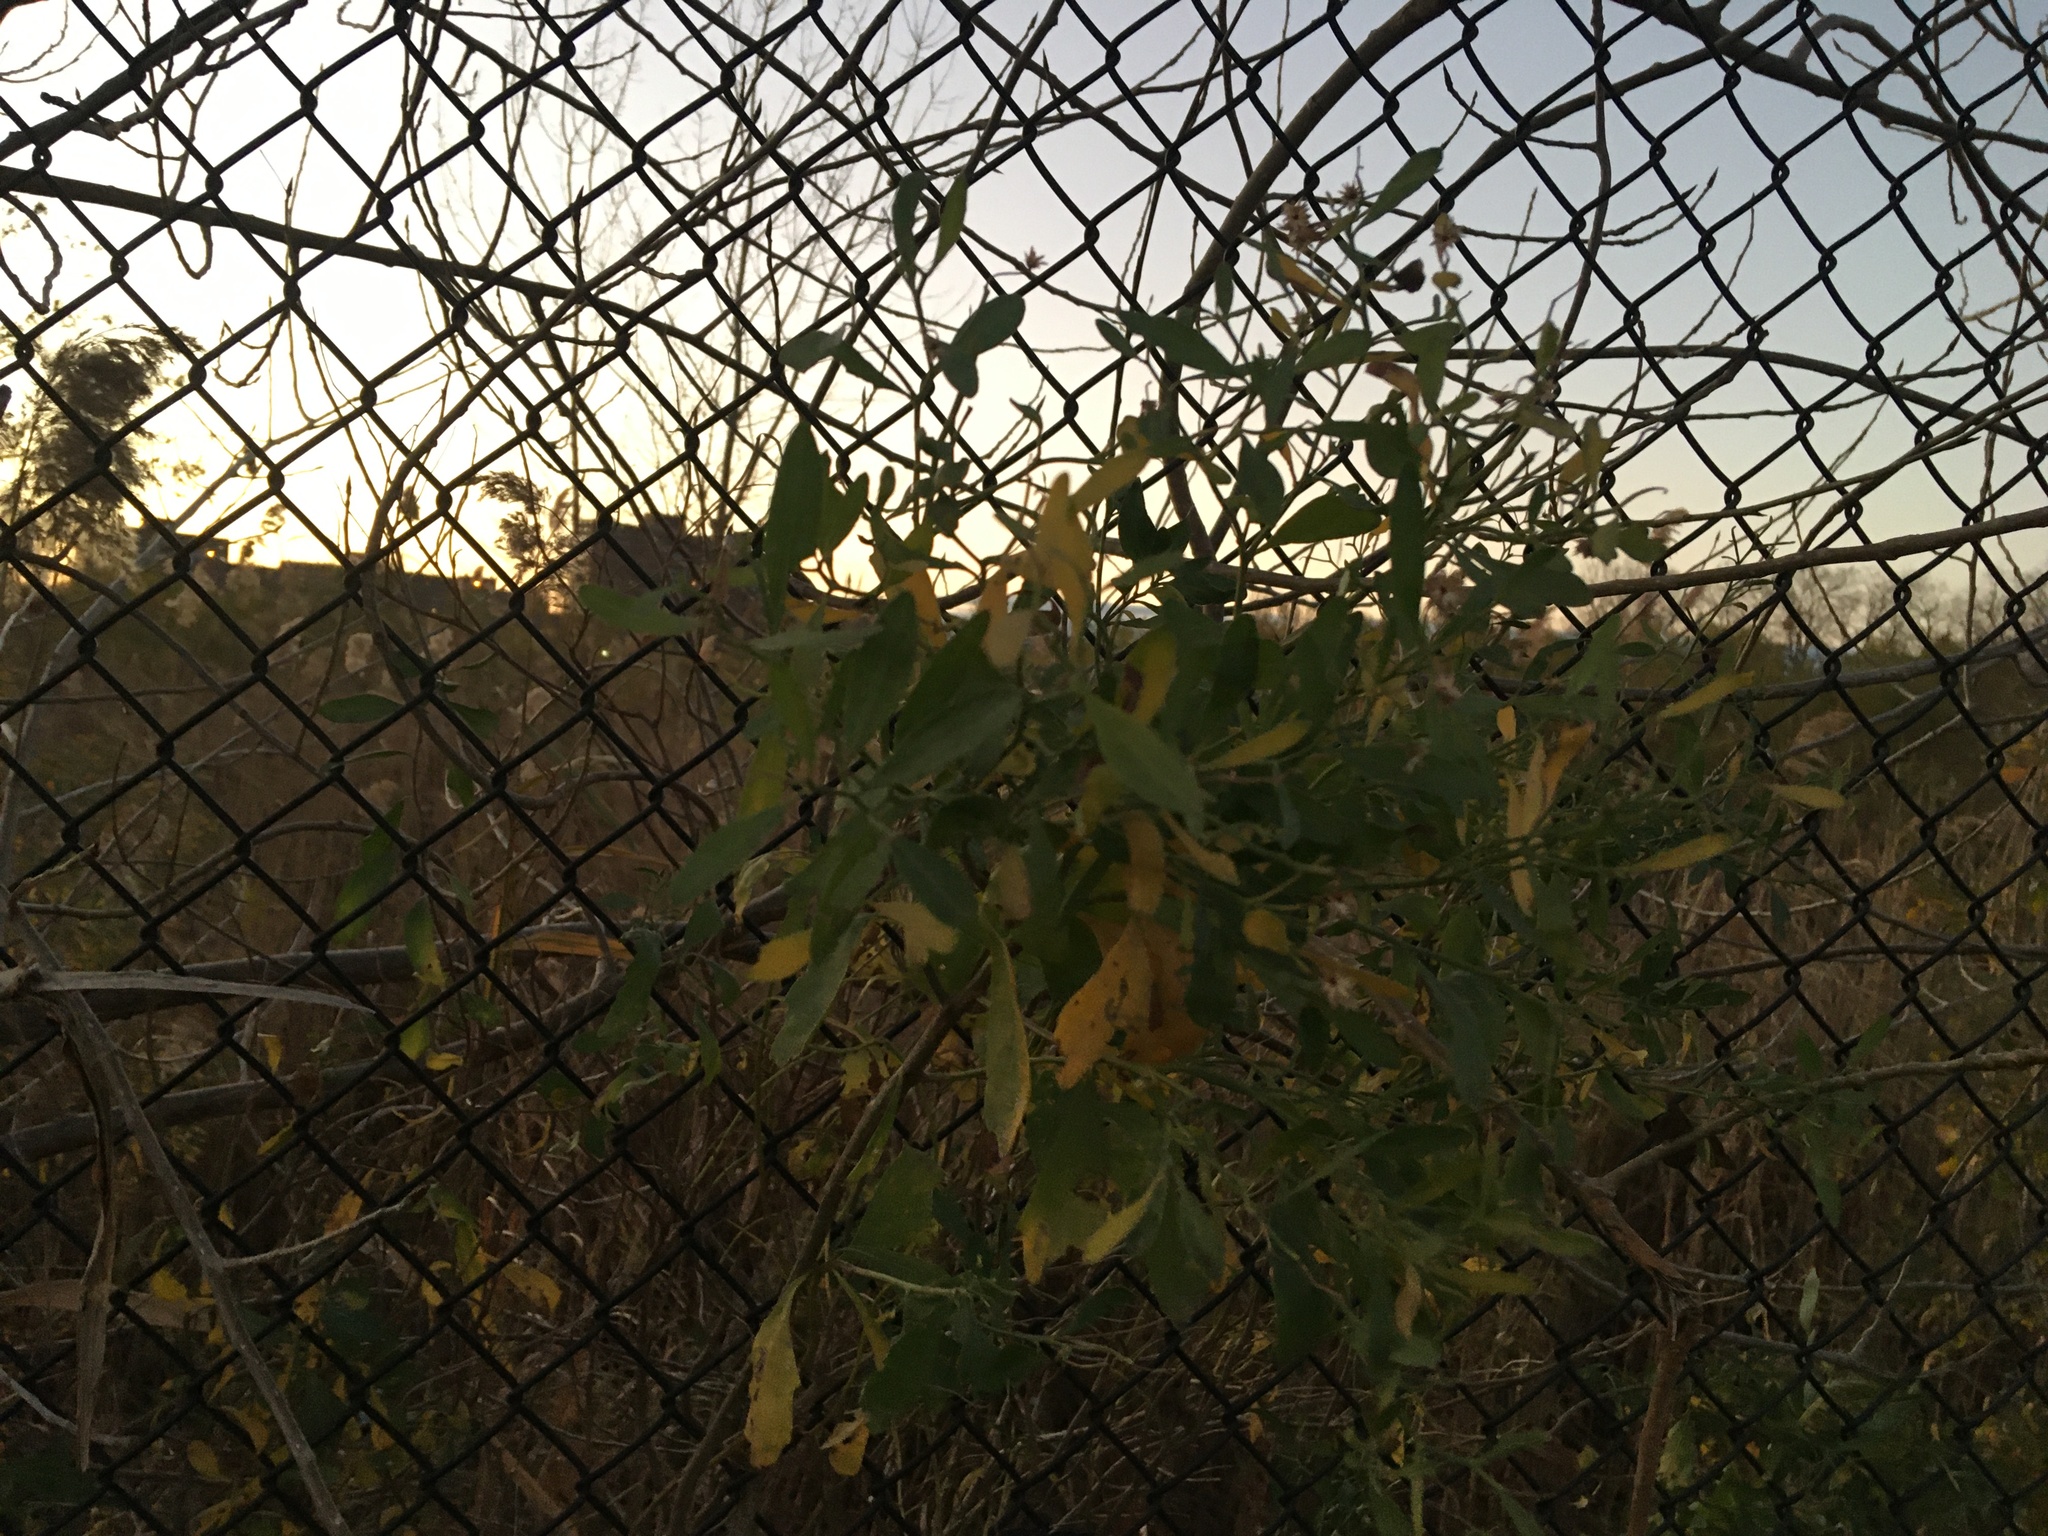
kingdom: Plantae
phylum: Tracheophyta
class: Magnoliopsida
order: Asterales
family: Asteraceae
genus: Baccharis
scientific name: Baccharis halimifolia
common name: Eastern baccharis
